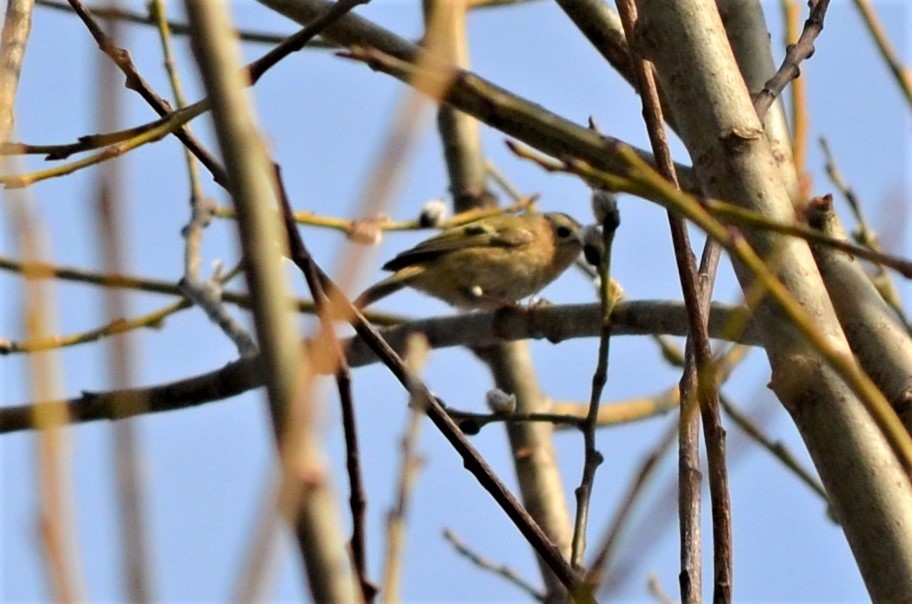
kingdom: Animalia
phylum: Chordata
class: Aves
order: Passeriformes
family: Regulidae
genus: Regulus
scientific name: Regulus regulus
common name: Goldcrest
